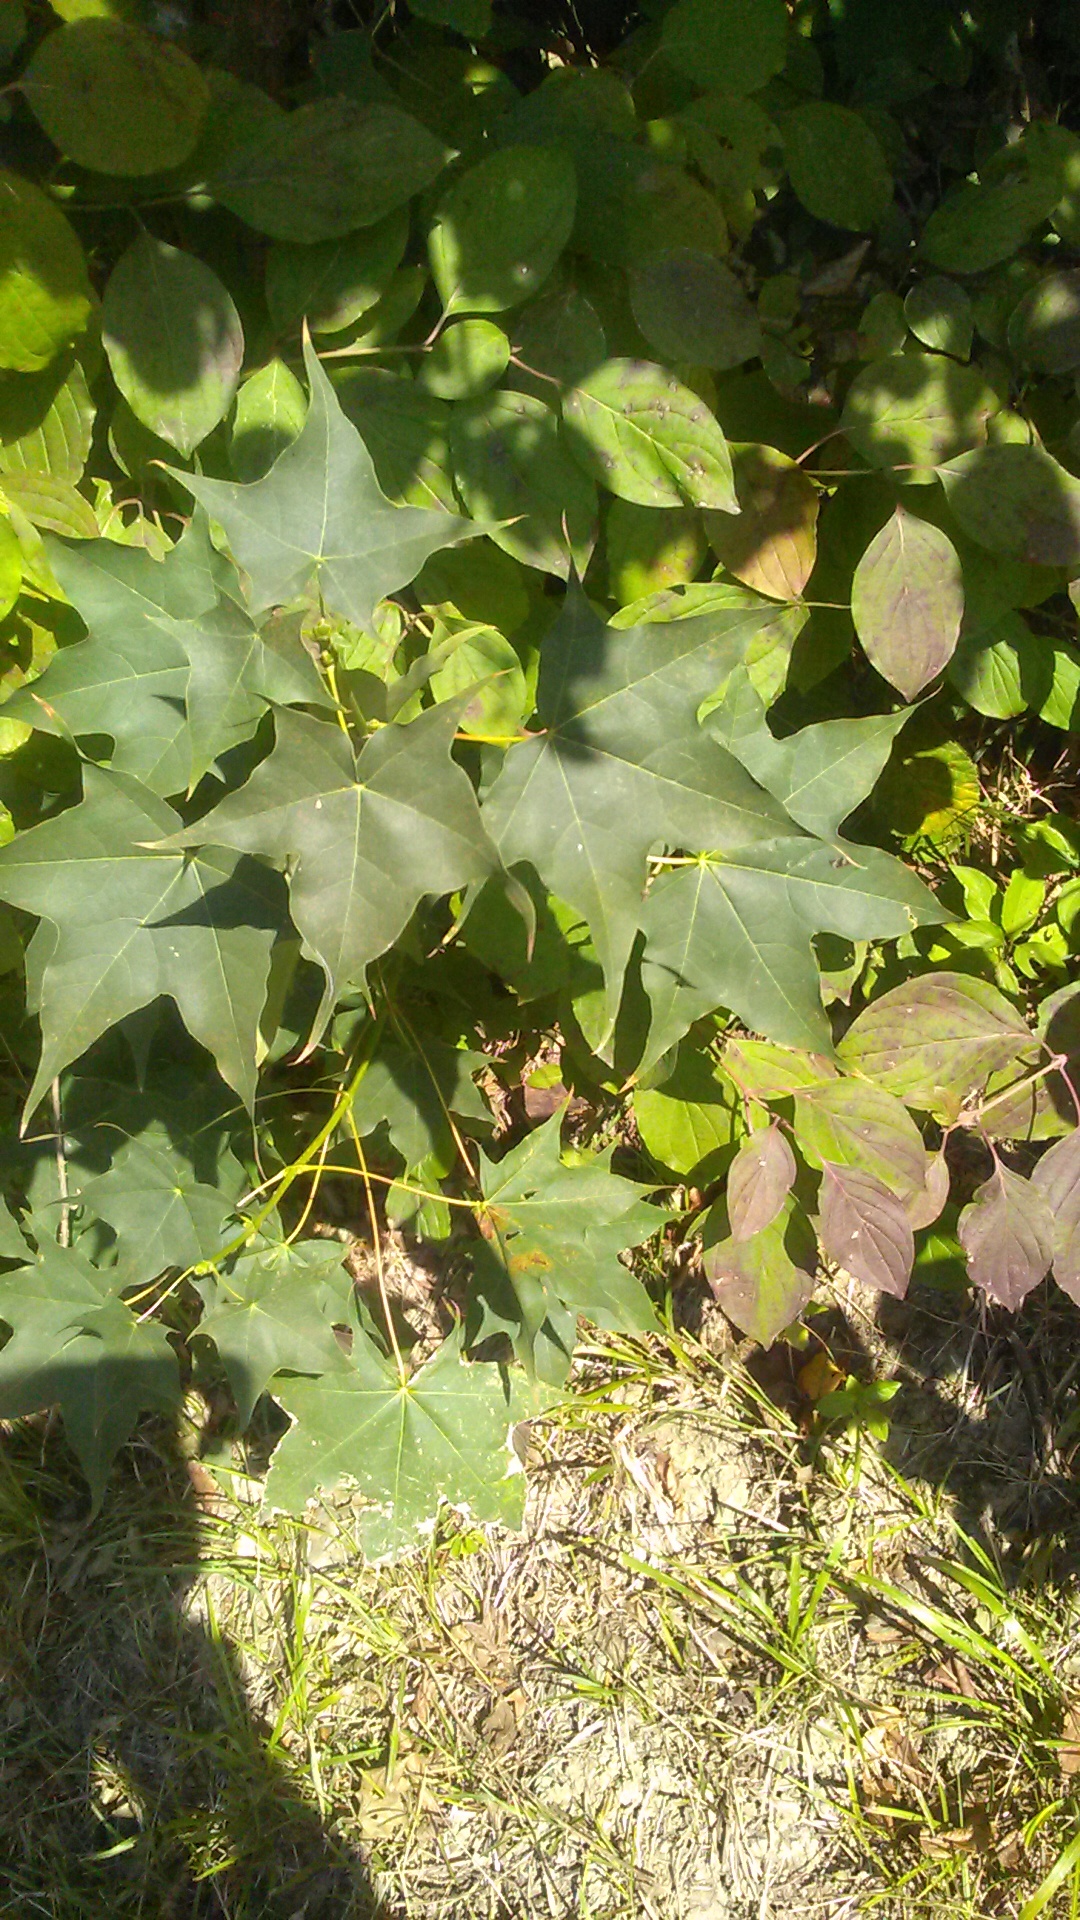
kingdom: Plantae
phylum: Tracheophyta
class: Magnoliopsida
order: Sapindales
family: Sapindaceae
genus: Acer
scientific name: Acer cappadocicum
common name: Cappadocian maple
